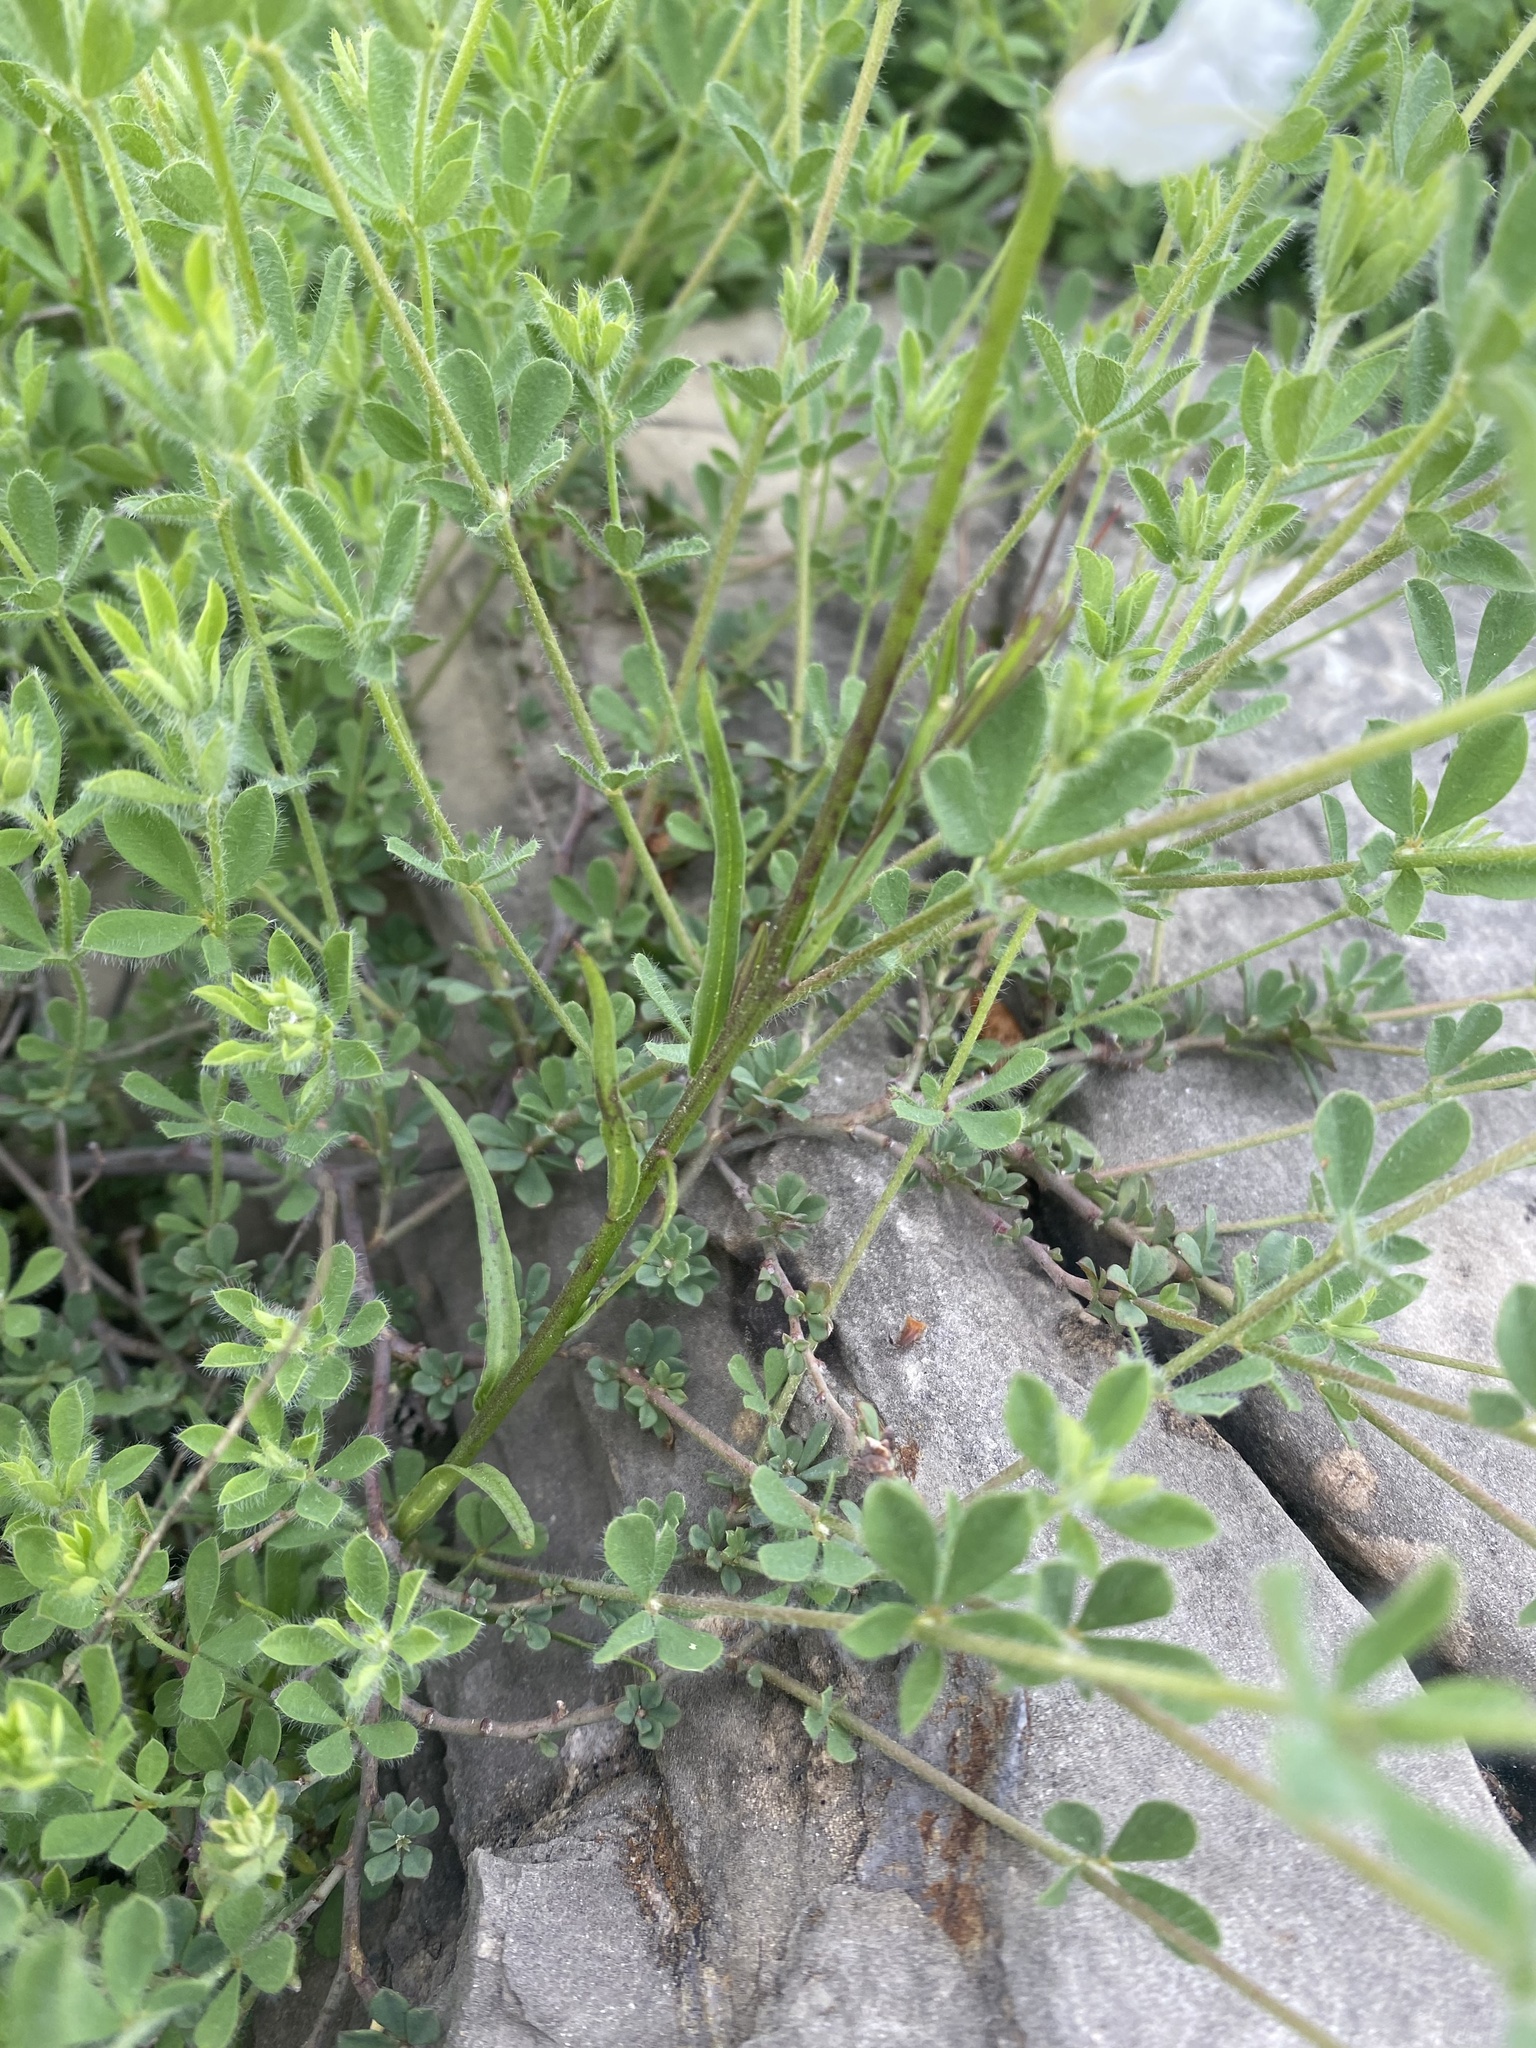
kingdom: Plantae
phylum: Tracheophyta
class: Magnoliopsida
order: Fabales
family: Polygalaceae
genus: Polygala
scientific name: Polygala major
